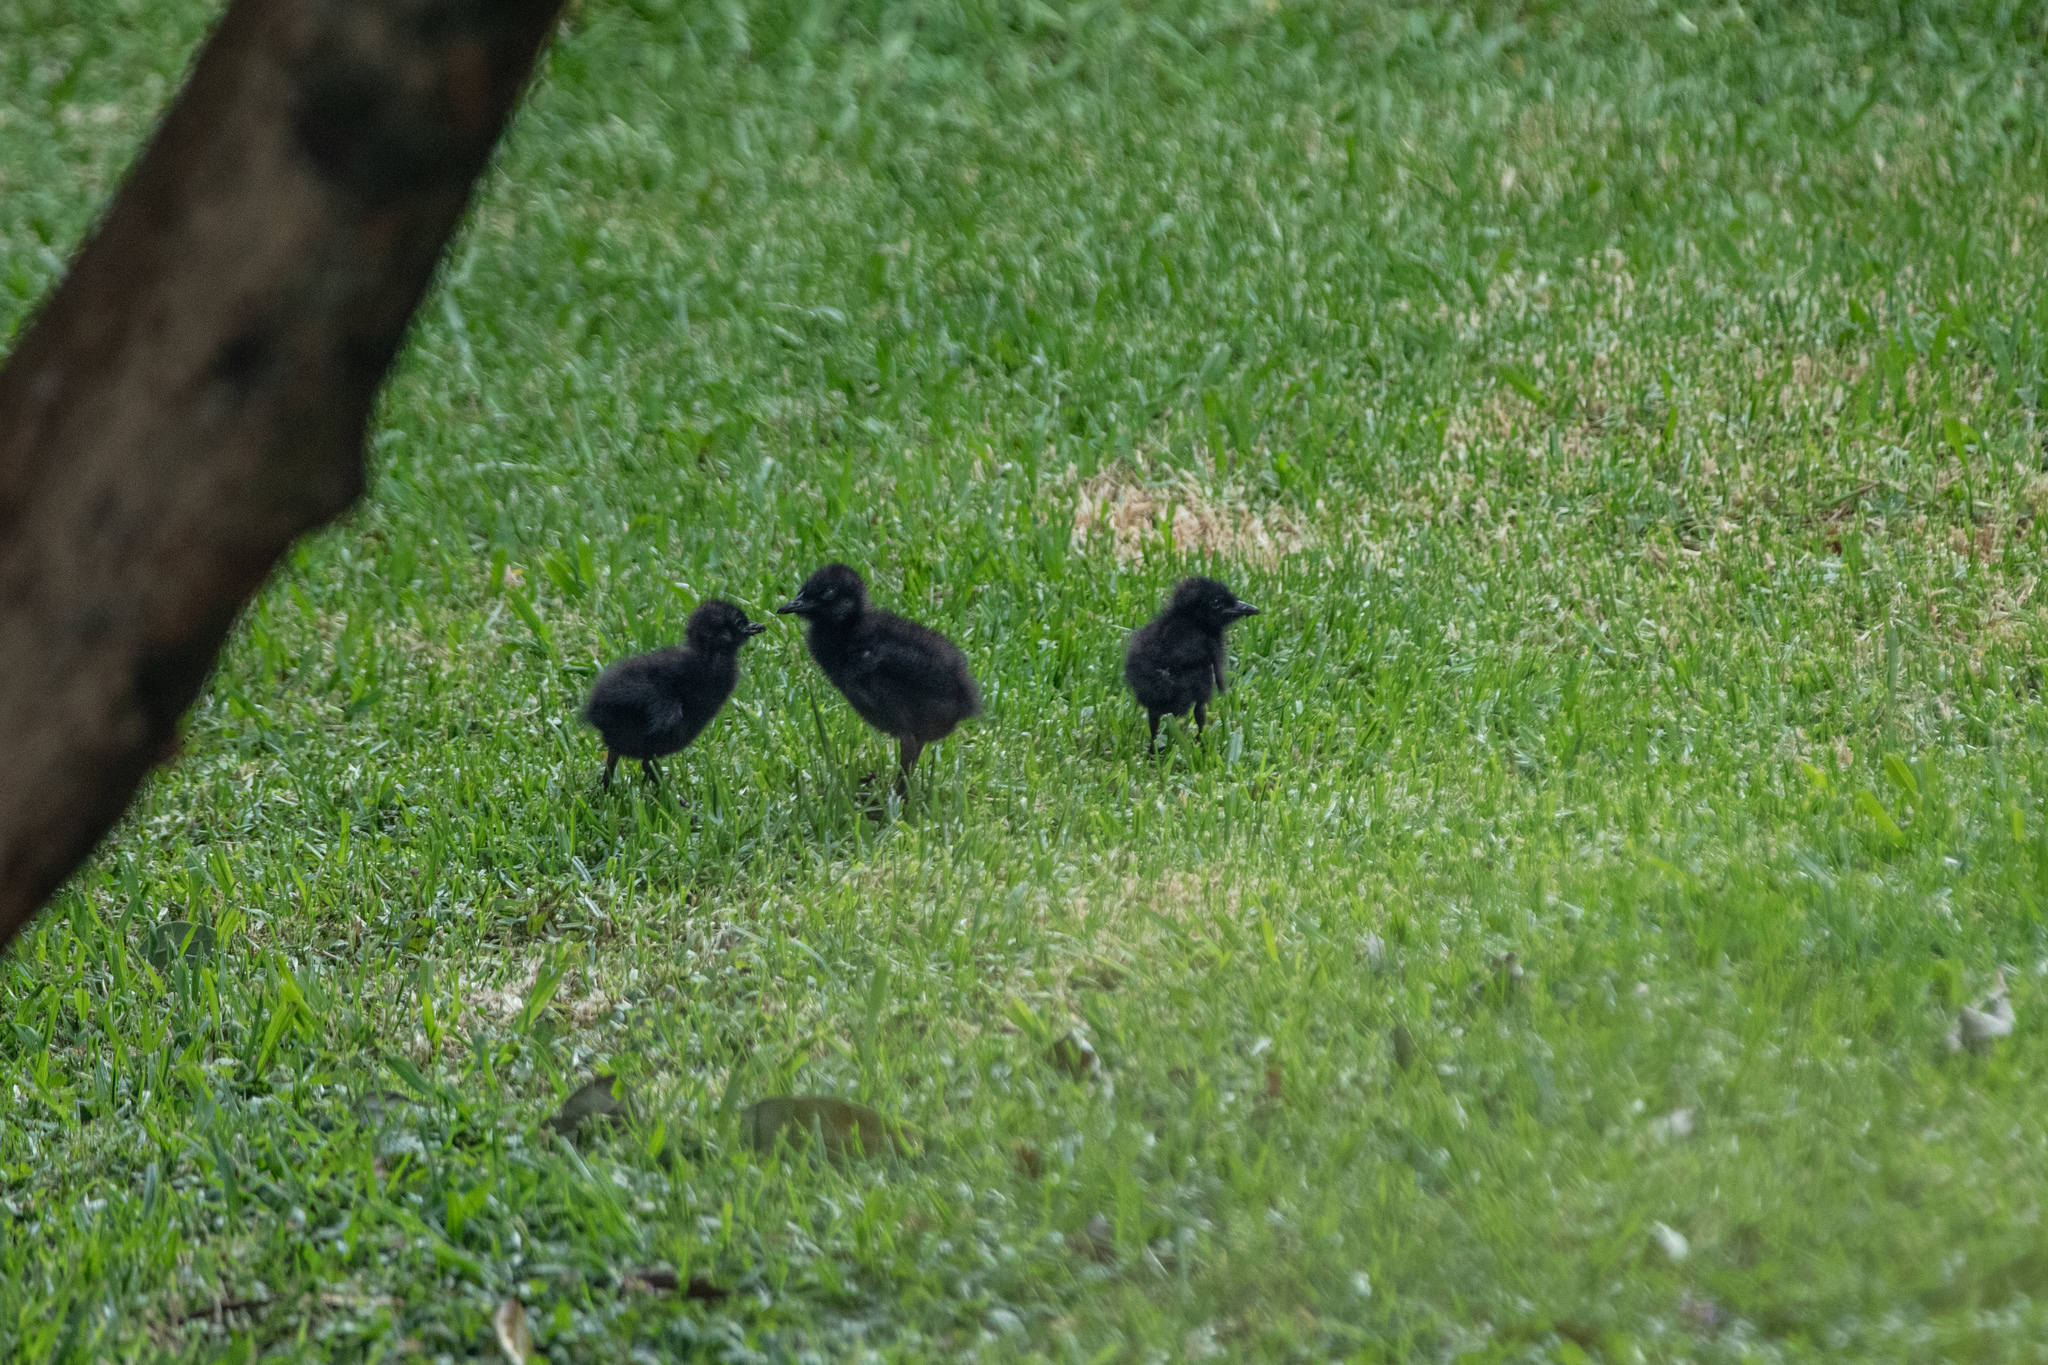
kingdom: Animalia
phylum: Chordata
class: Aves
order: Gruiformes
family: Rallidae
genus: Gallirallus
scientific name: Gallirallus philippensis
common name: Buff-banded rail
